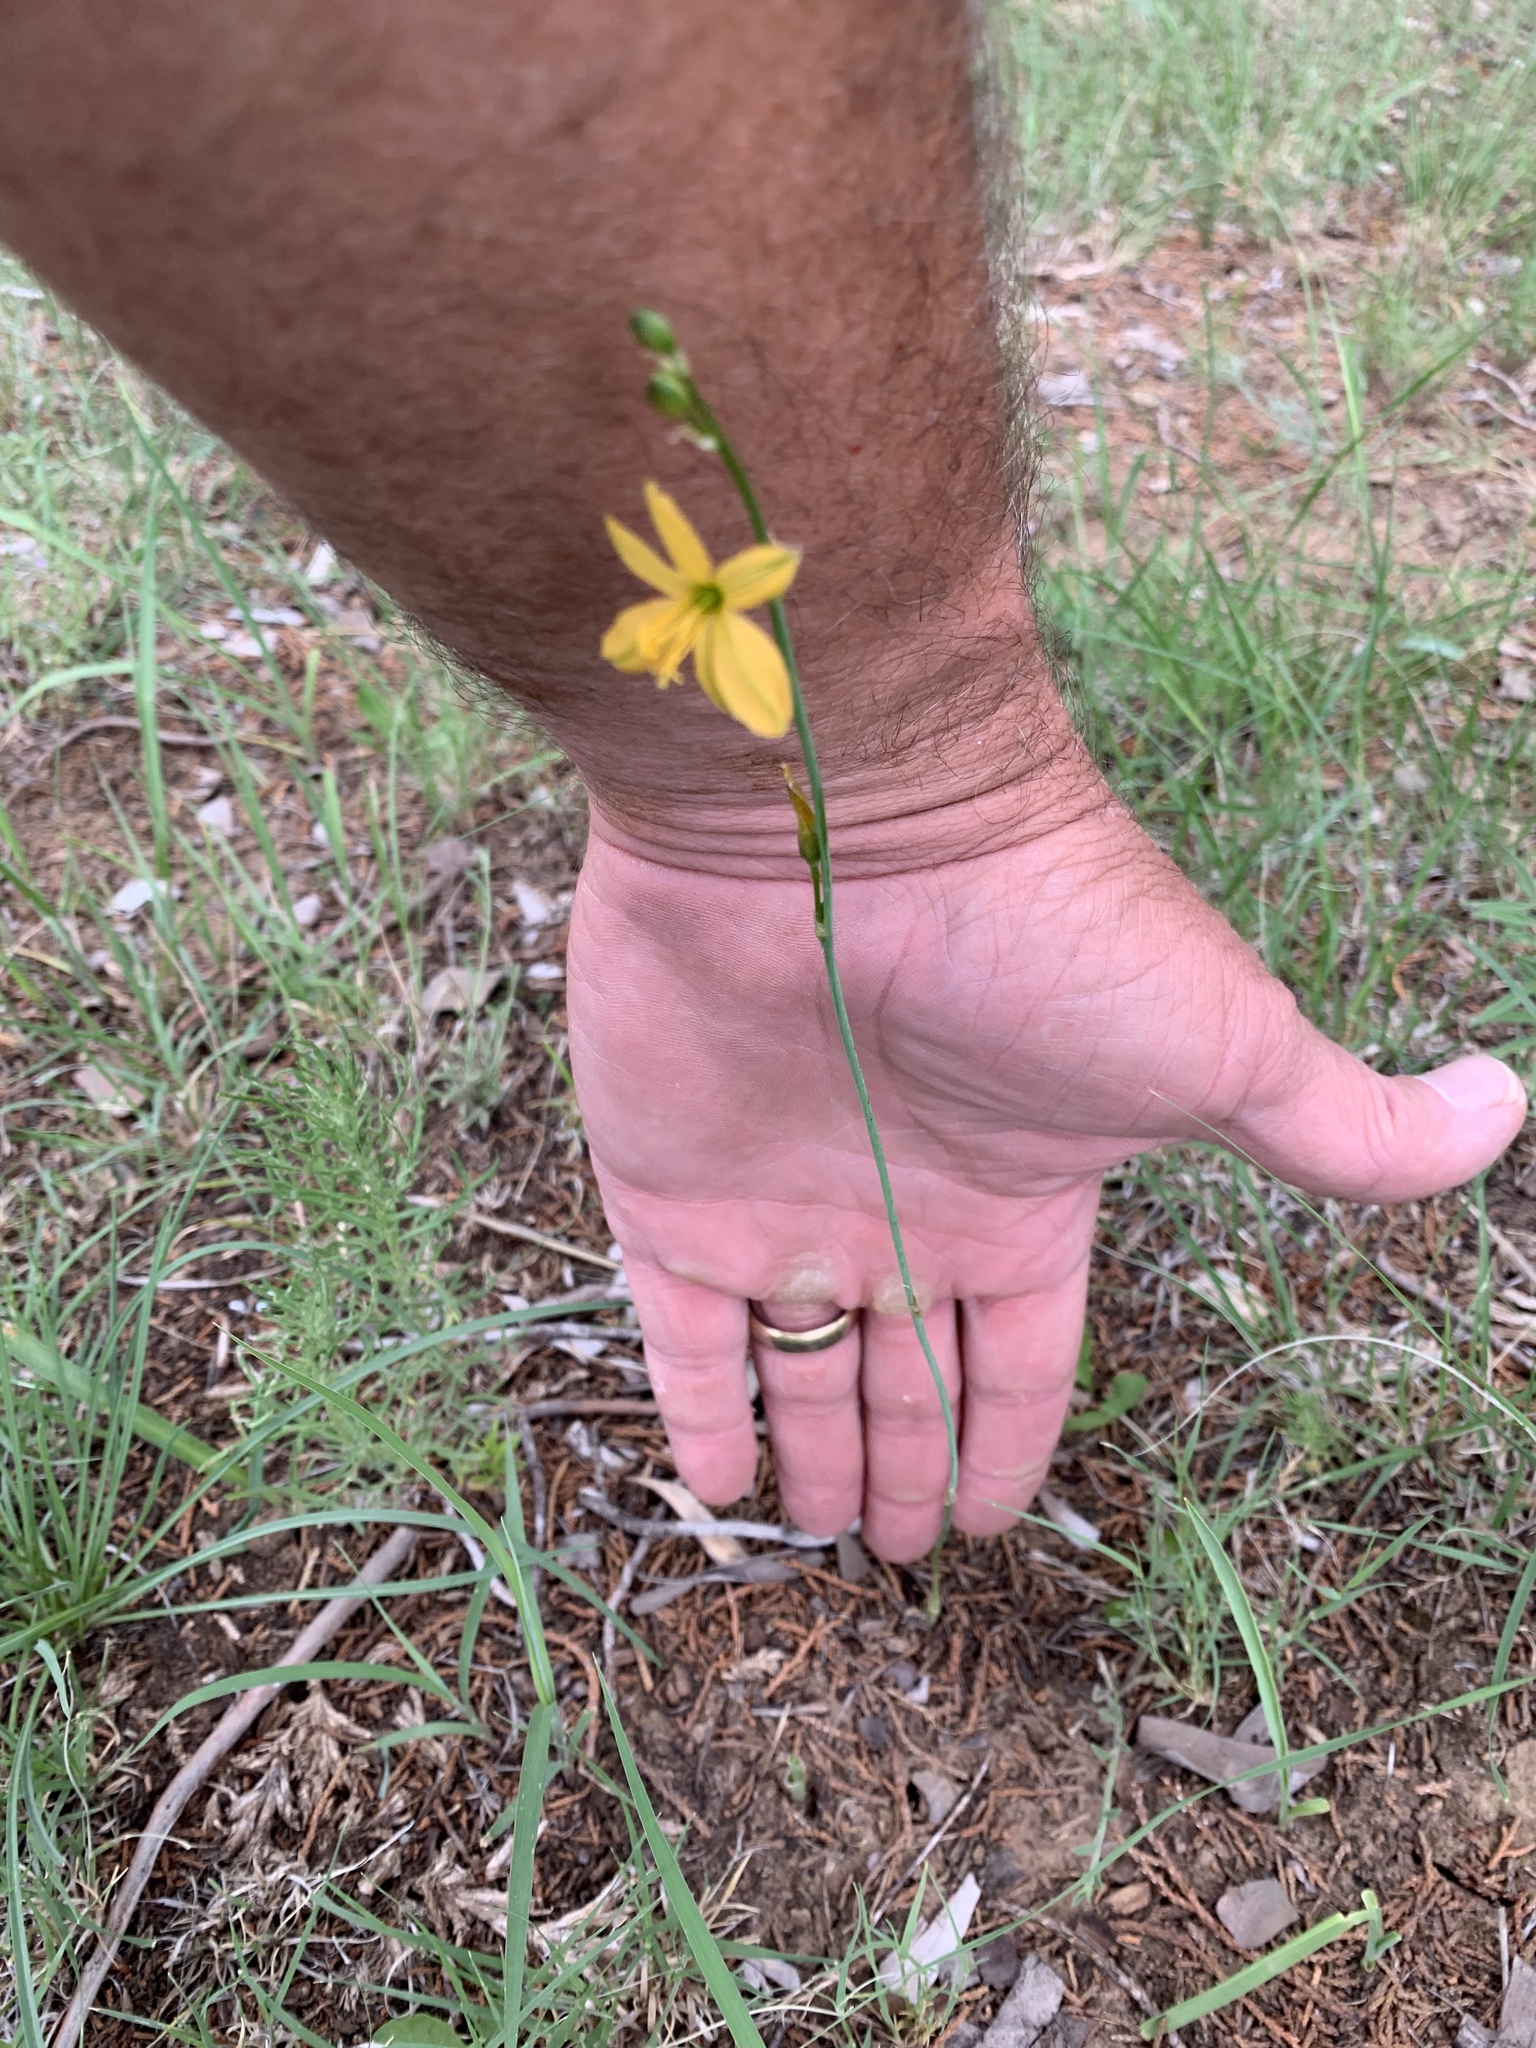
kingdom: Plantae
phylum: Tracheophyta
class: Liliopsida
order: Asparagales
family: Asparagaceae
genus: Echeandia
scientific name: Echeandia flavescens
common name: Amberlily
